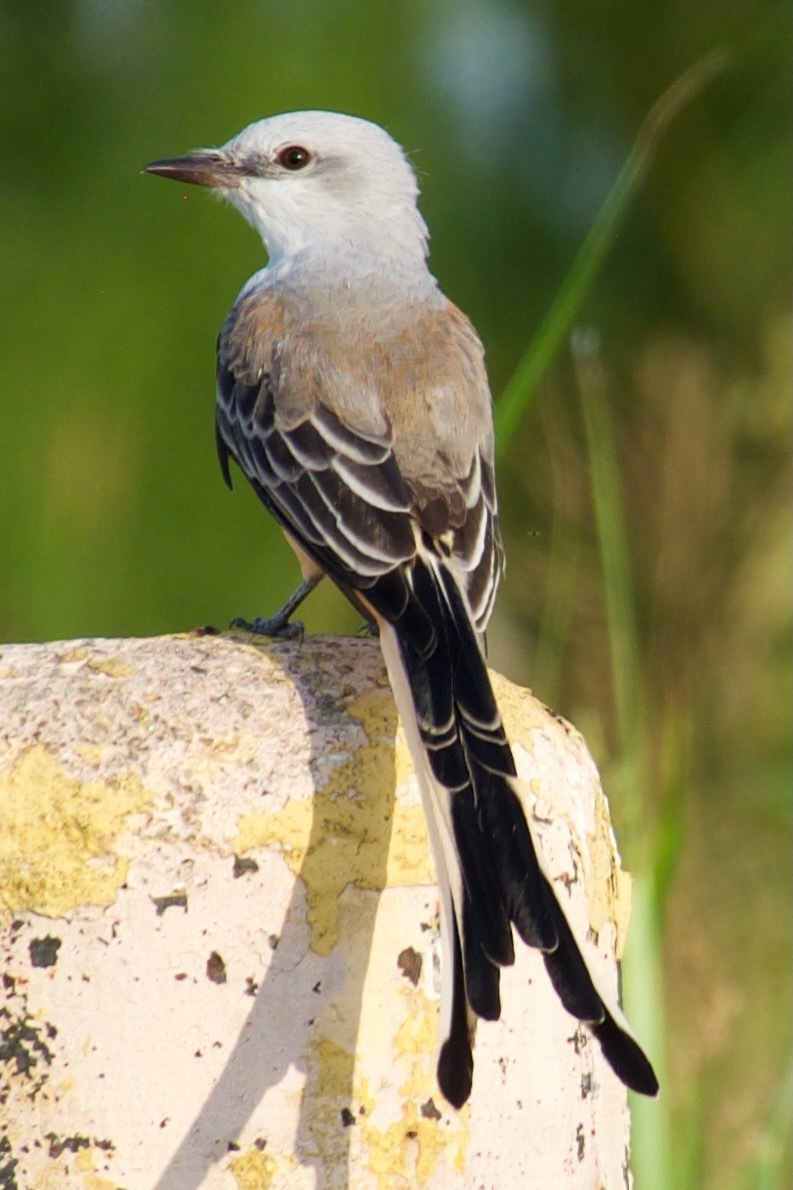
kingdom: Animalia
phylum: Chordata
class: Aves
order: Passeriformes
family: Tyrannidae
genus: Tyrannus
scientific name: Tyrannus forficatus
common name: Scissor-tailed flycatcher
